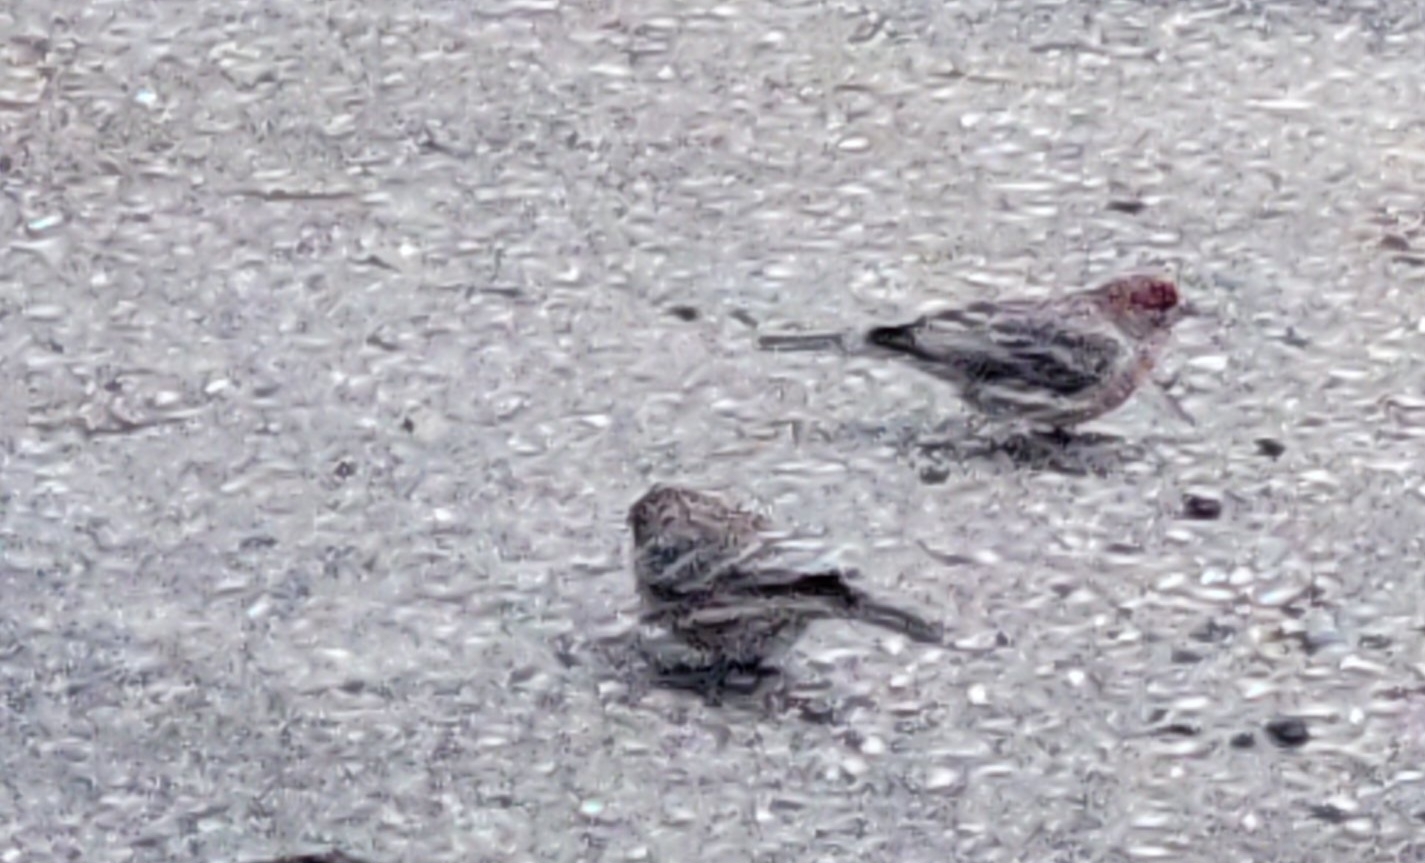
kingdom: Animalia
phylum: Chordata
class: Aves
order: Passeriformes
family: Fringillidae
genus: Haemorhous
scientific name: Haemorhous mexicanus
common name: House finch
